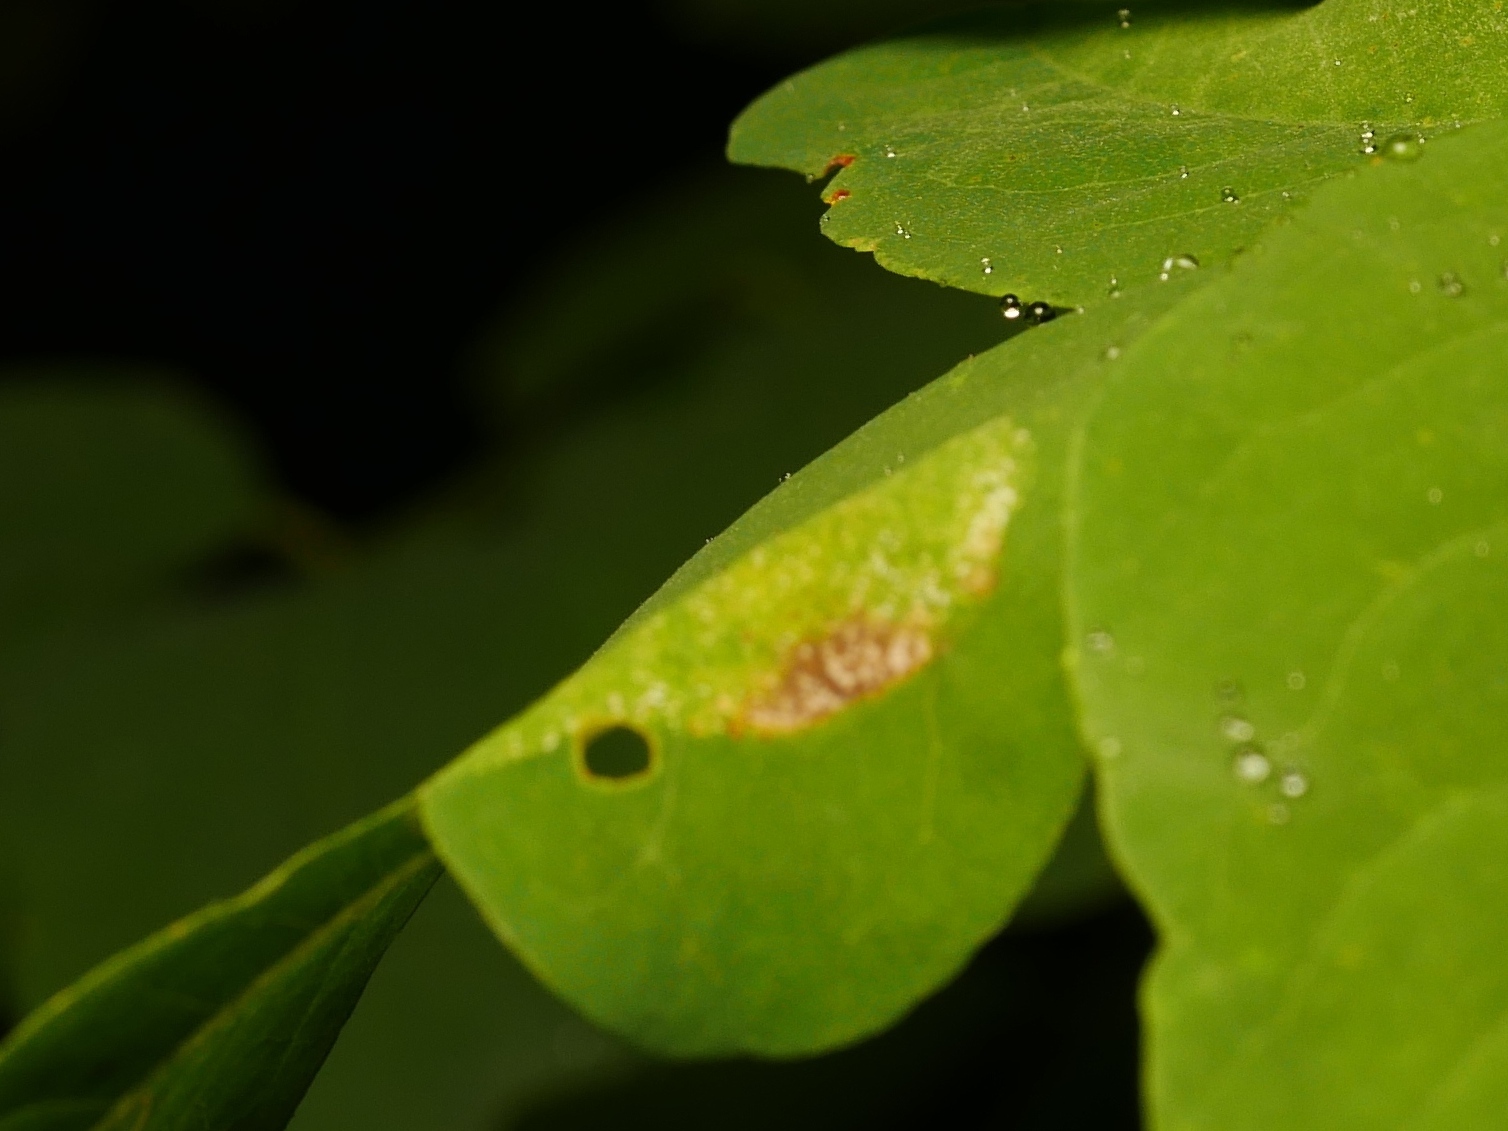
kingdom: Animalia
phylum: Arthropoda
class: Insecta
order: Lepidoptera
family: Gracillariidae
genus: Macrosaccus
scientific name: Macrosaccus robiniella
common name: Leaf blotch miner moth
